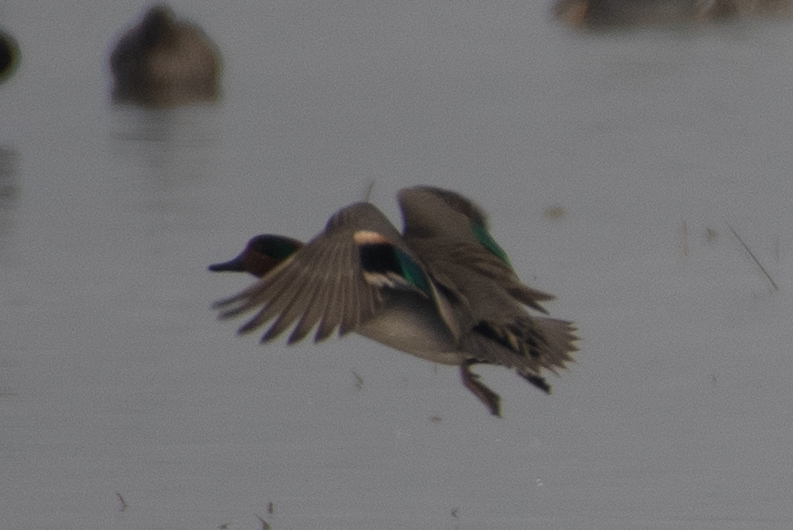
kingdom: Animalia
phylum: Chordata
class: Aves
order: Anseriformes
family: Anatidae
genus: Anas
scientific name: Anas crecca
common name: Eurasian teal
